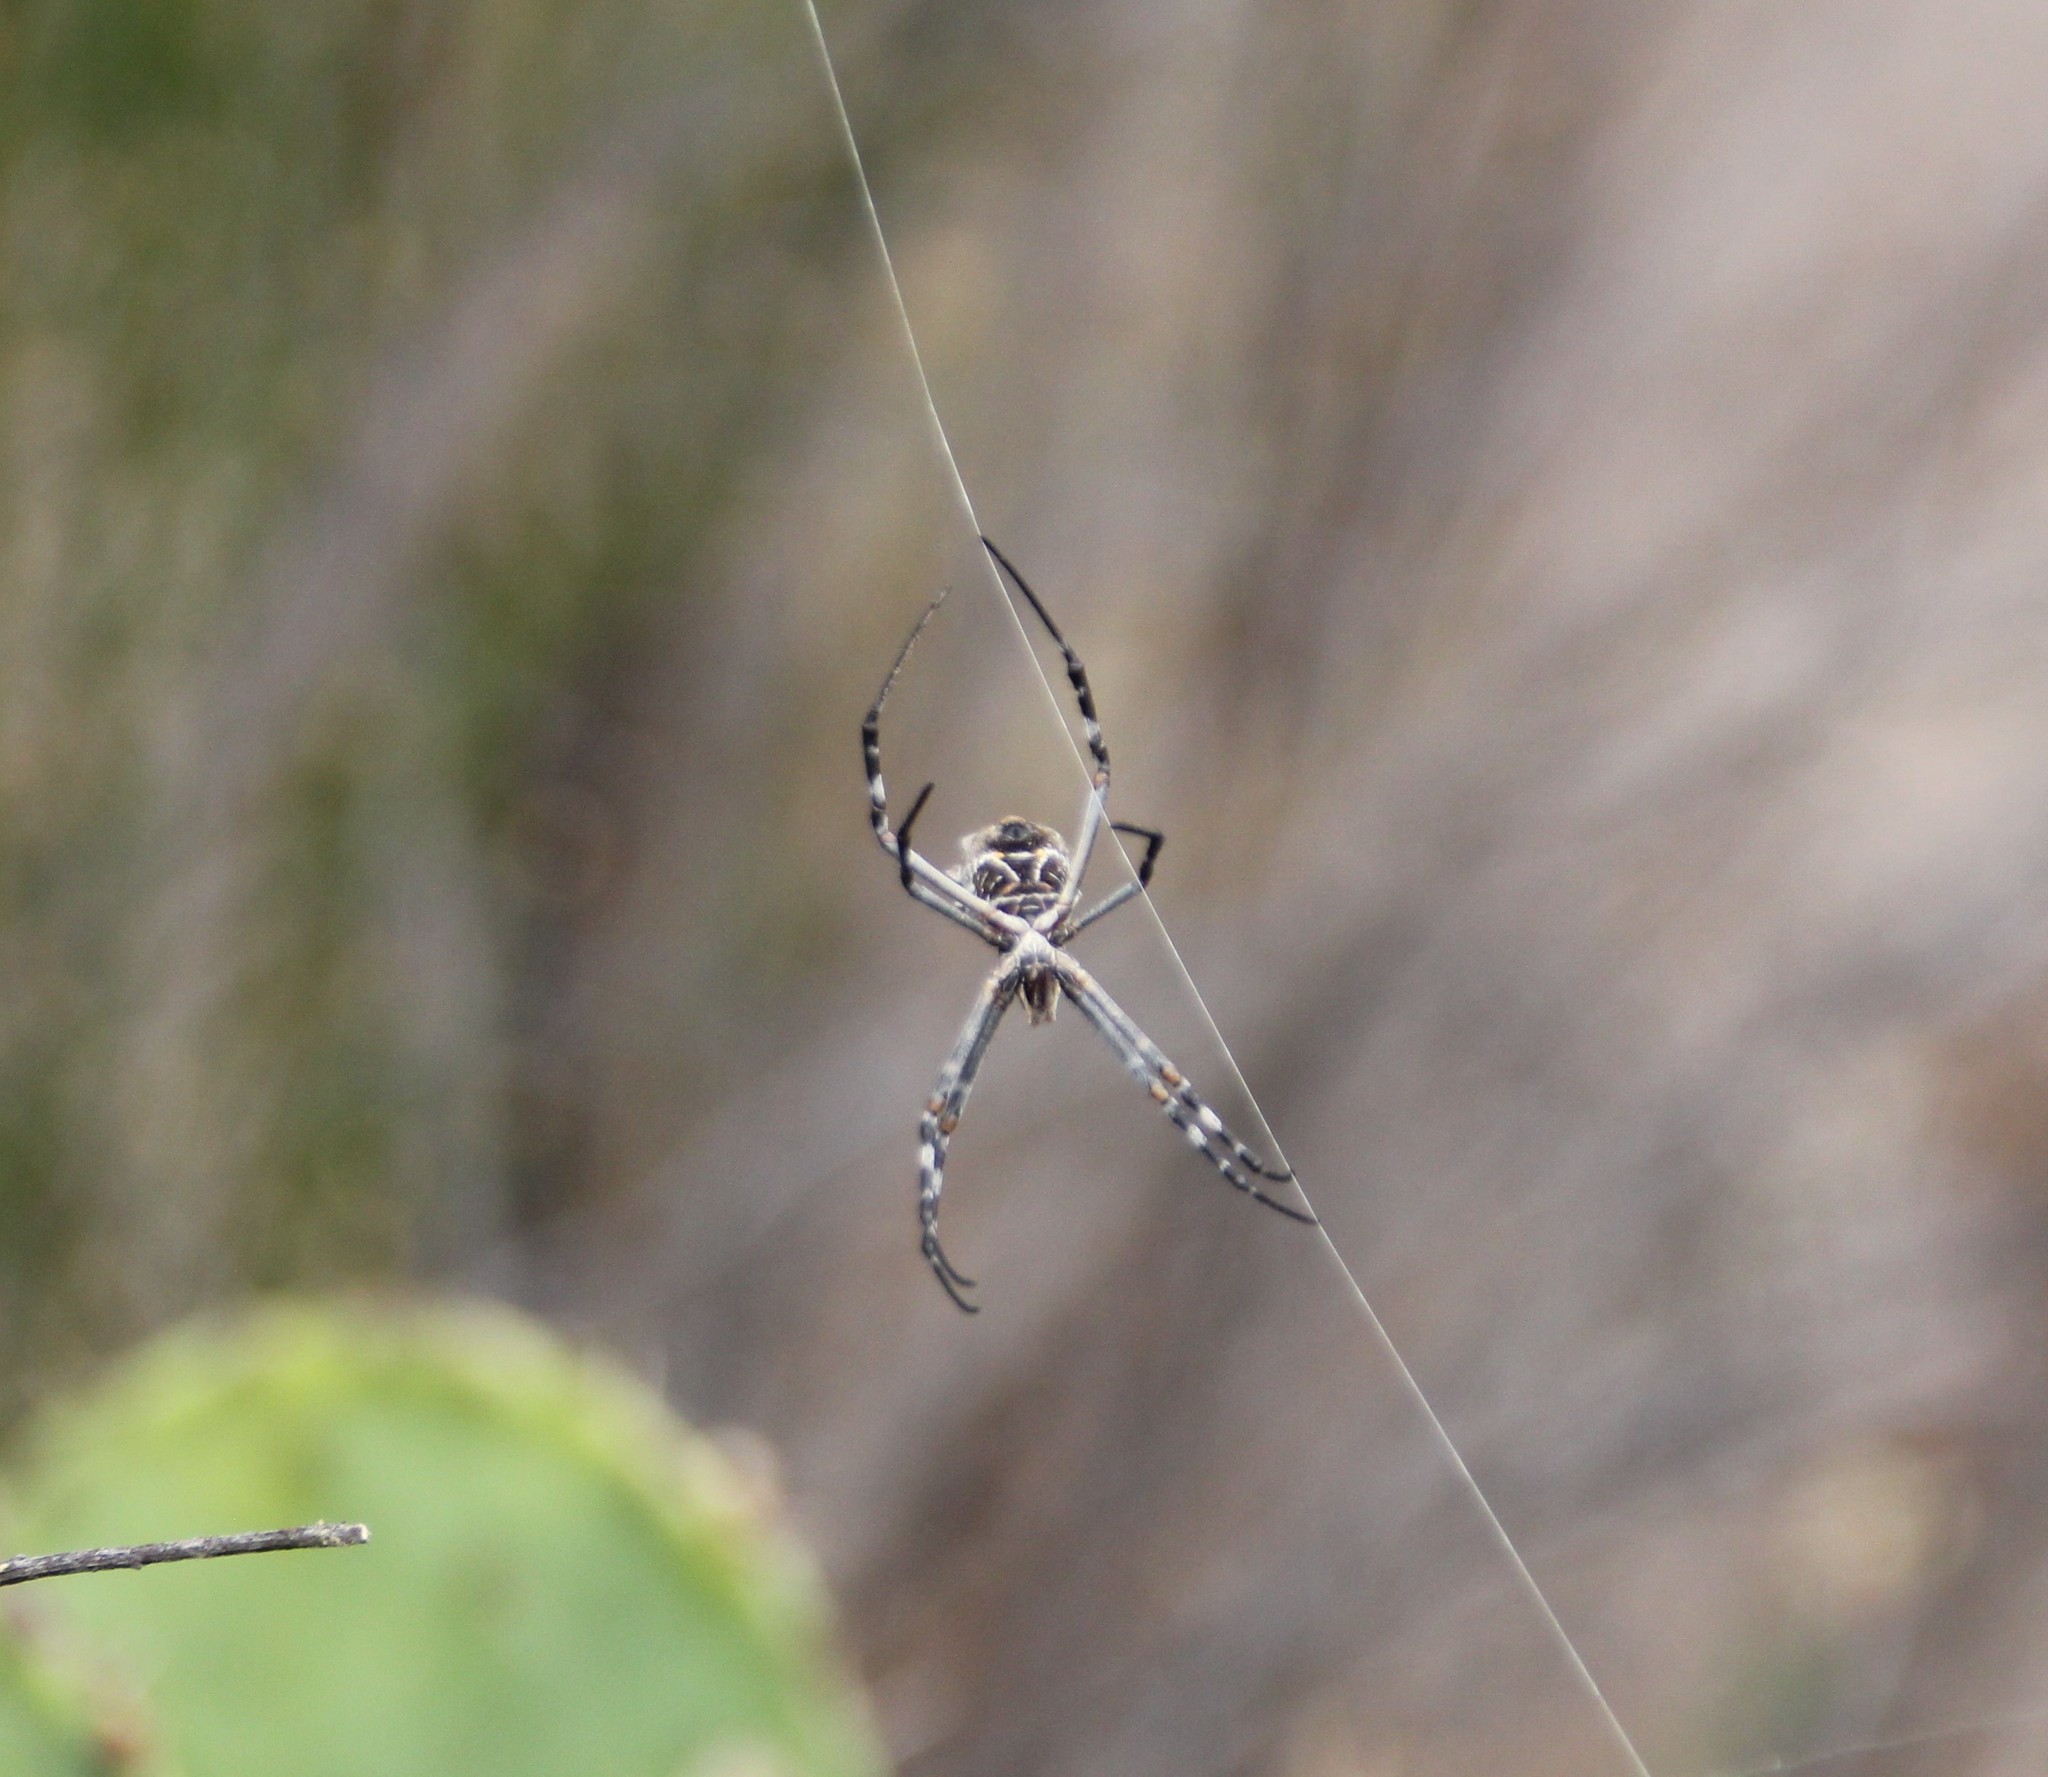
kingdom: Animalia
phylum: Arthropoda
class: Arachnida
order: Araneae
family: Araneidae
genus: Argiope
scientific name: Argiope argentata
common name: Orb weavers
